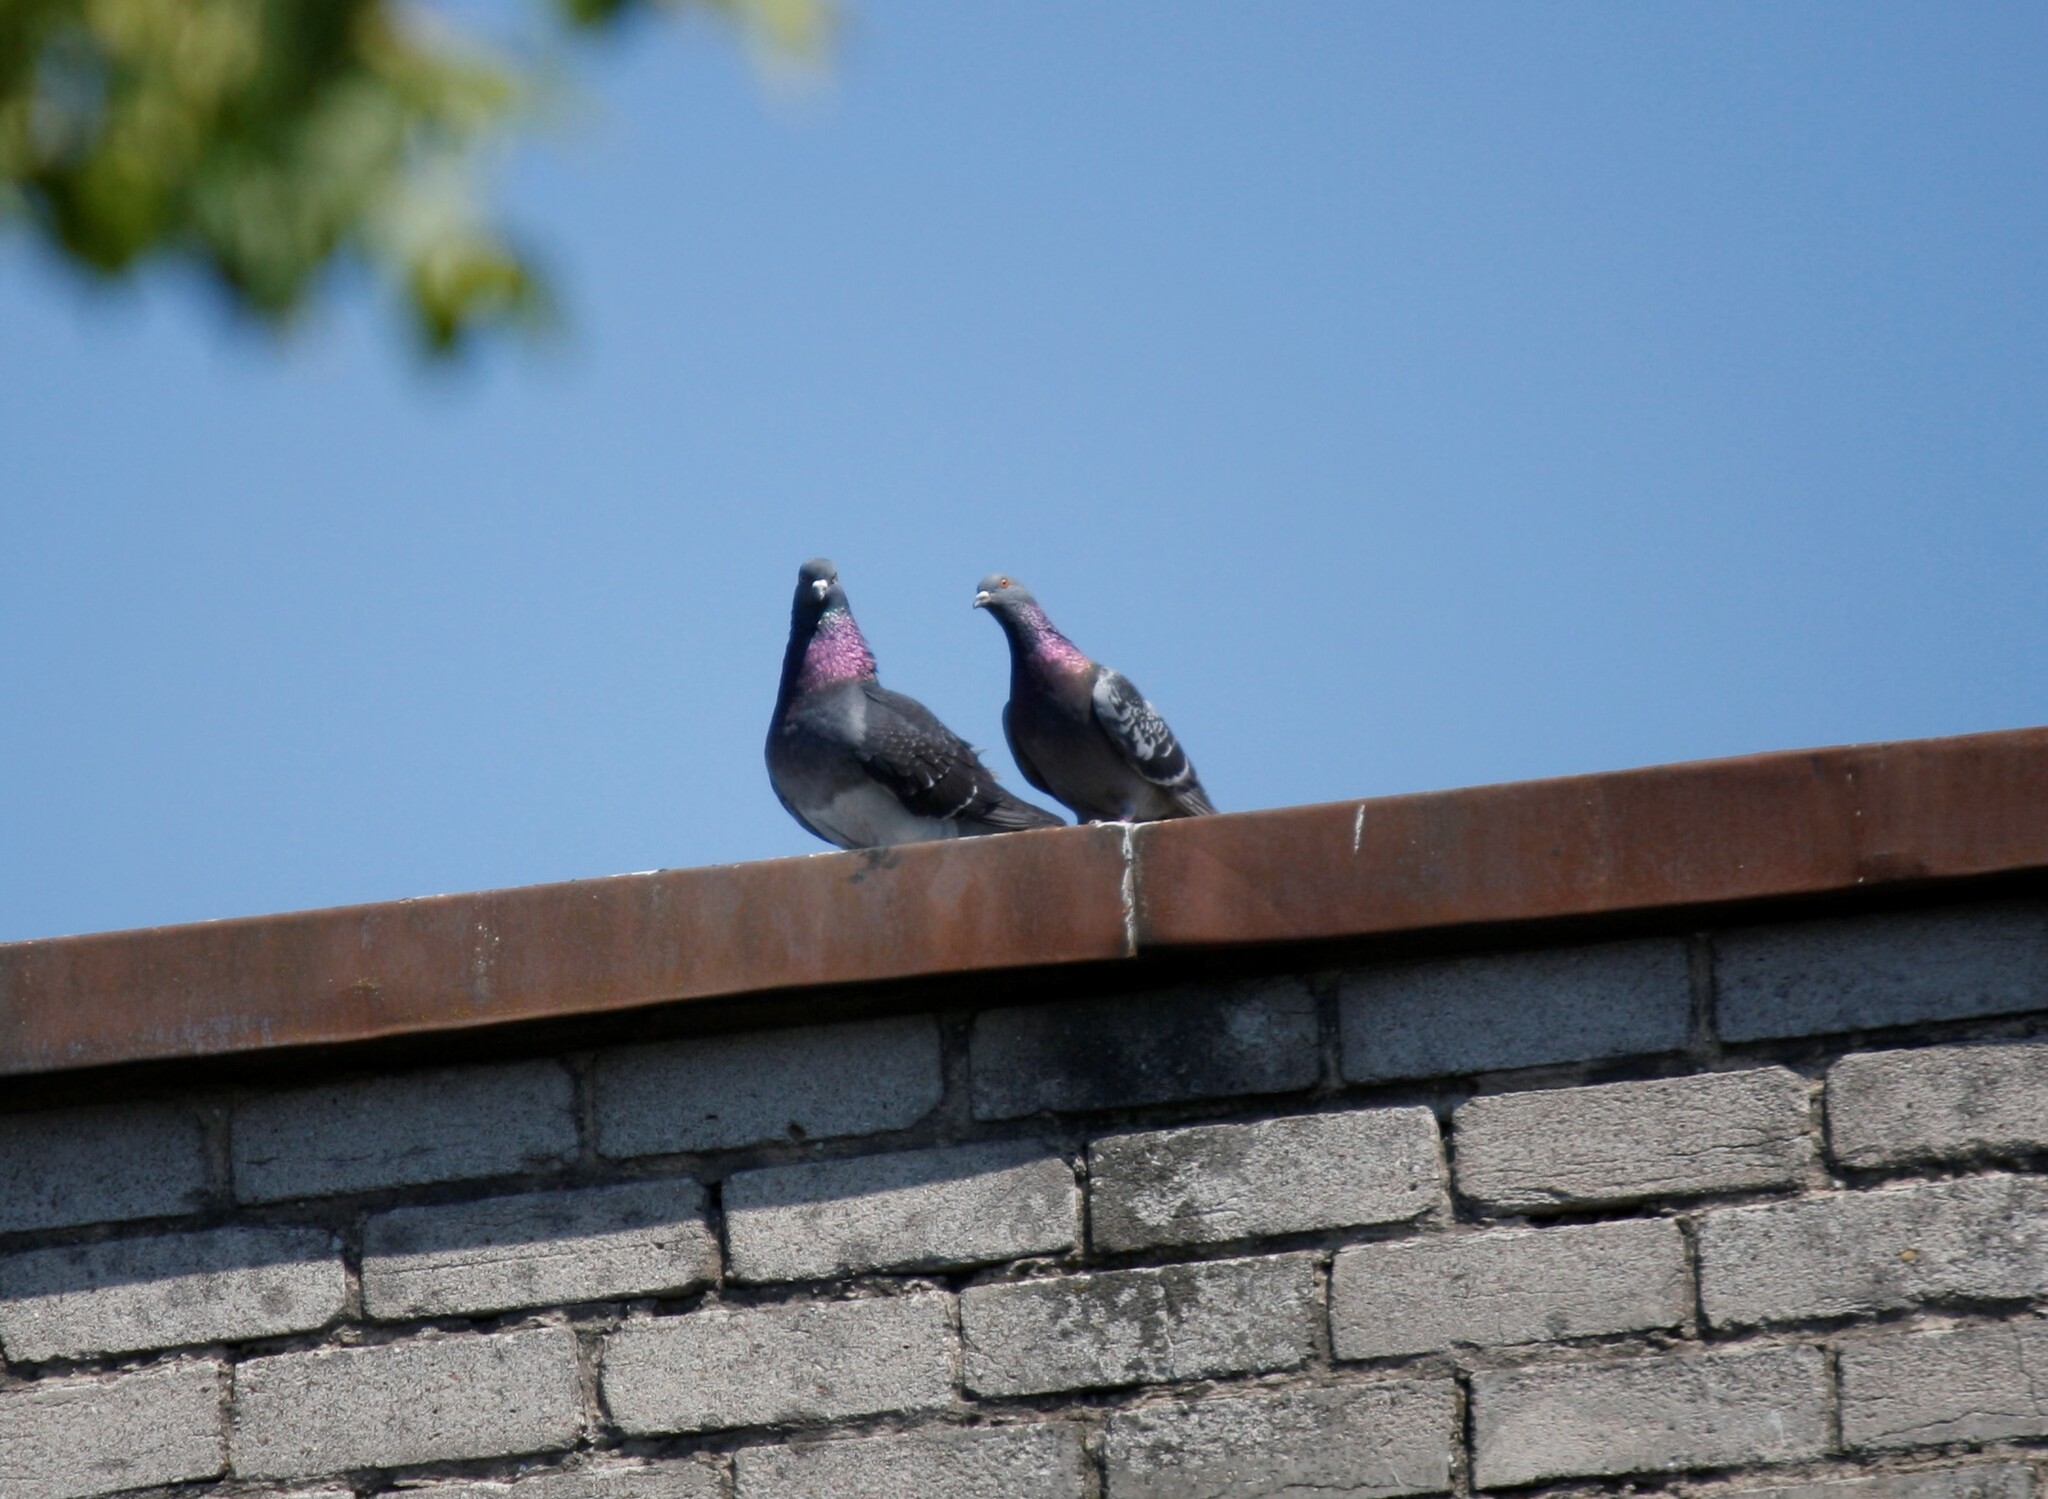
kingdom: Animalia
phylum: Chordata
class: Aves
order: Columbiformes
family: Columbidae
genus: Columba
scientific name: Columba livia
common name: Rock pigeon
